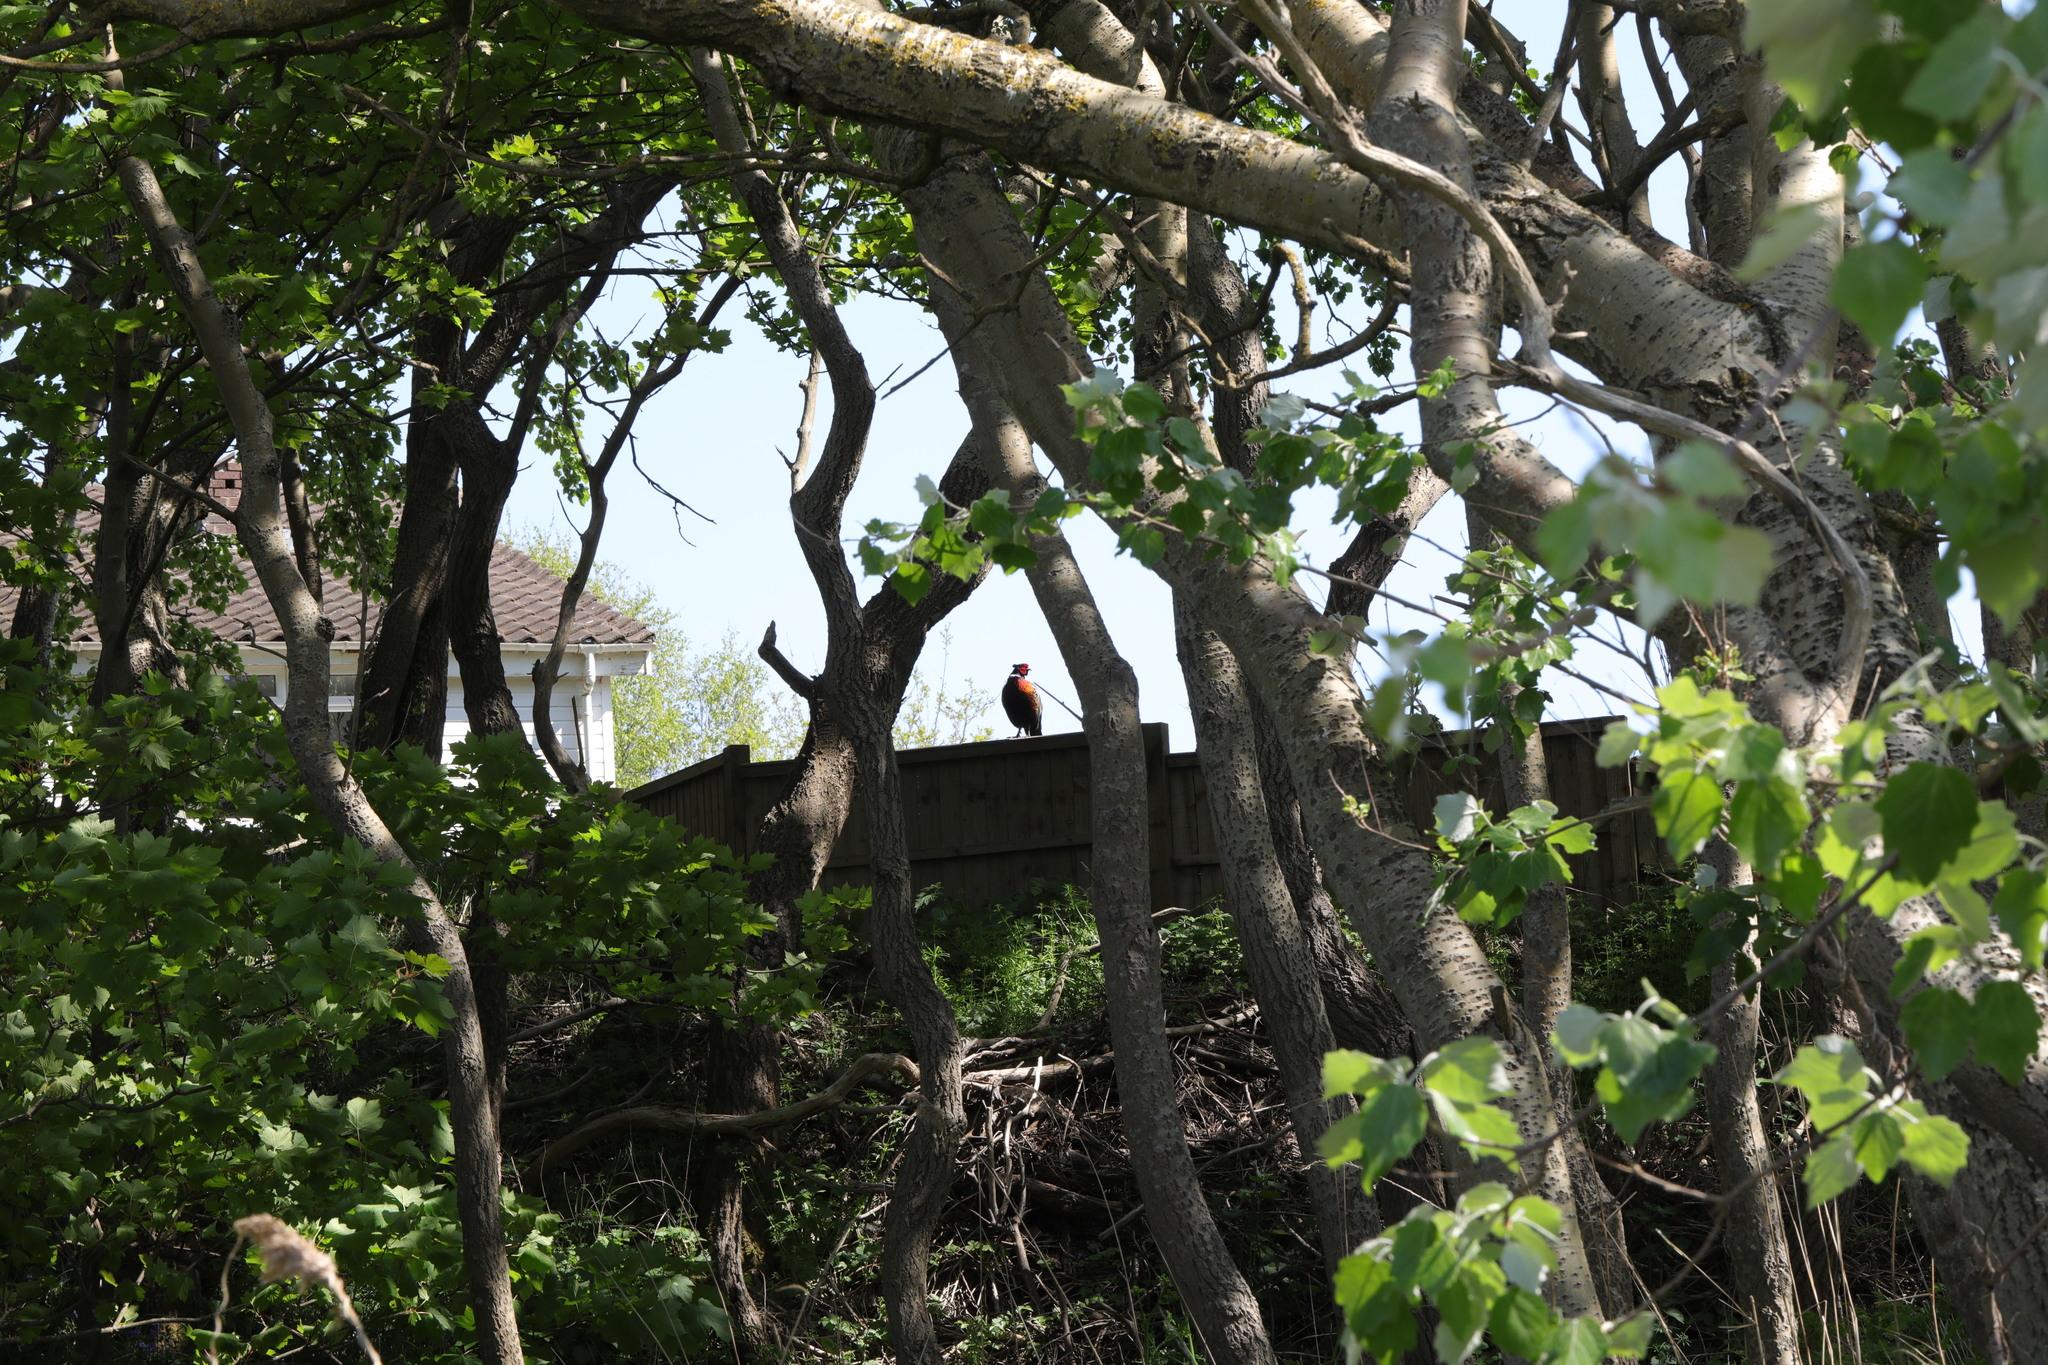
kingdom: Animalia
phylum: Chordata
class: Aves
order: Galliformes
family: Phasianidae
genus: Phasianus
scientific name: Phasianus colchicus
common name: Common pheasant
